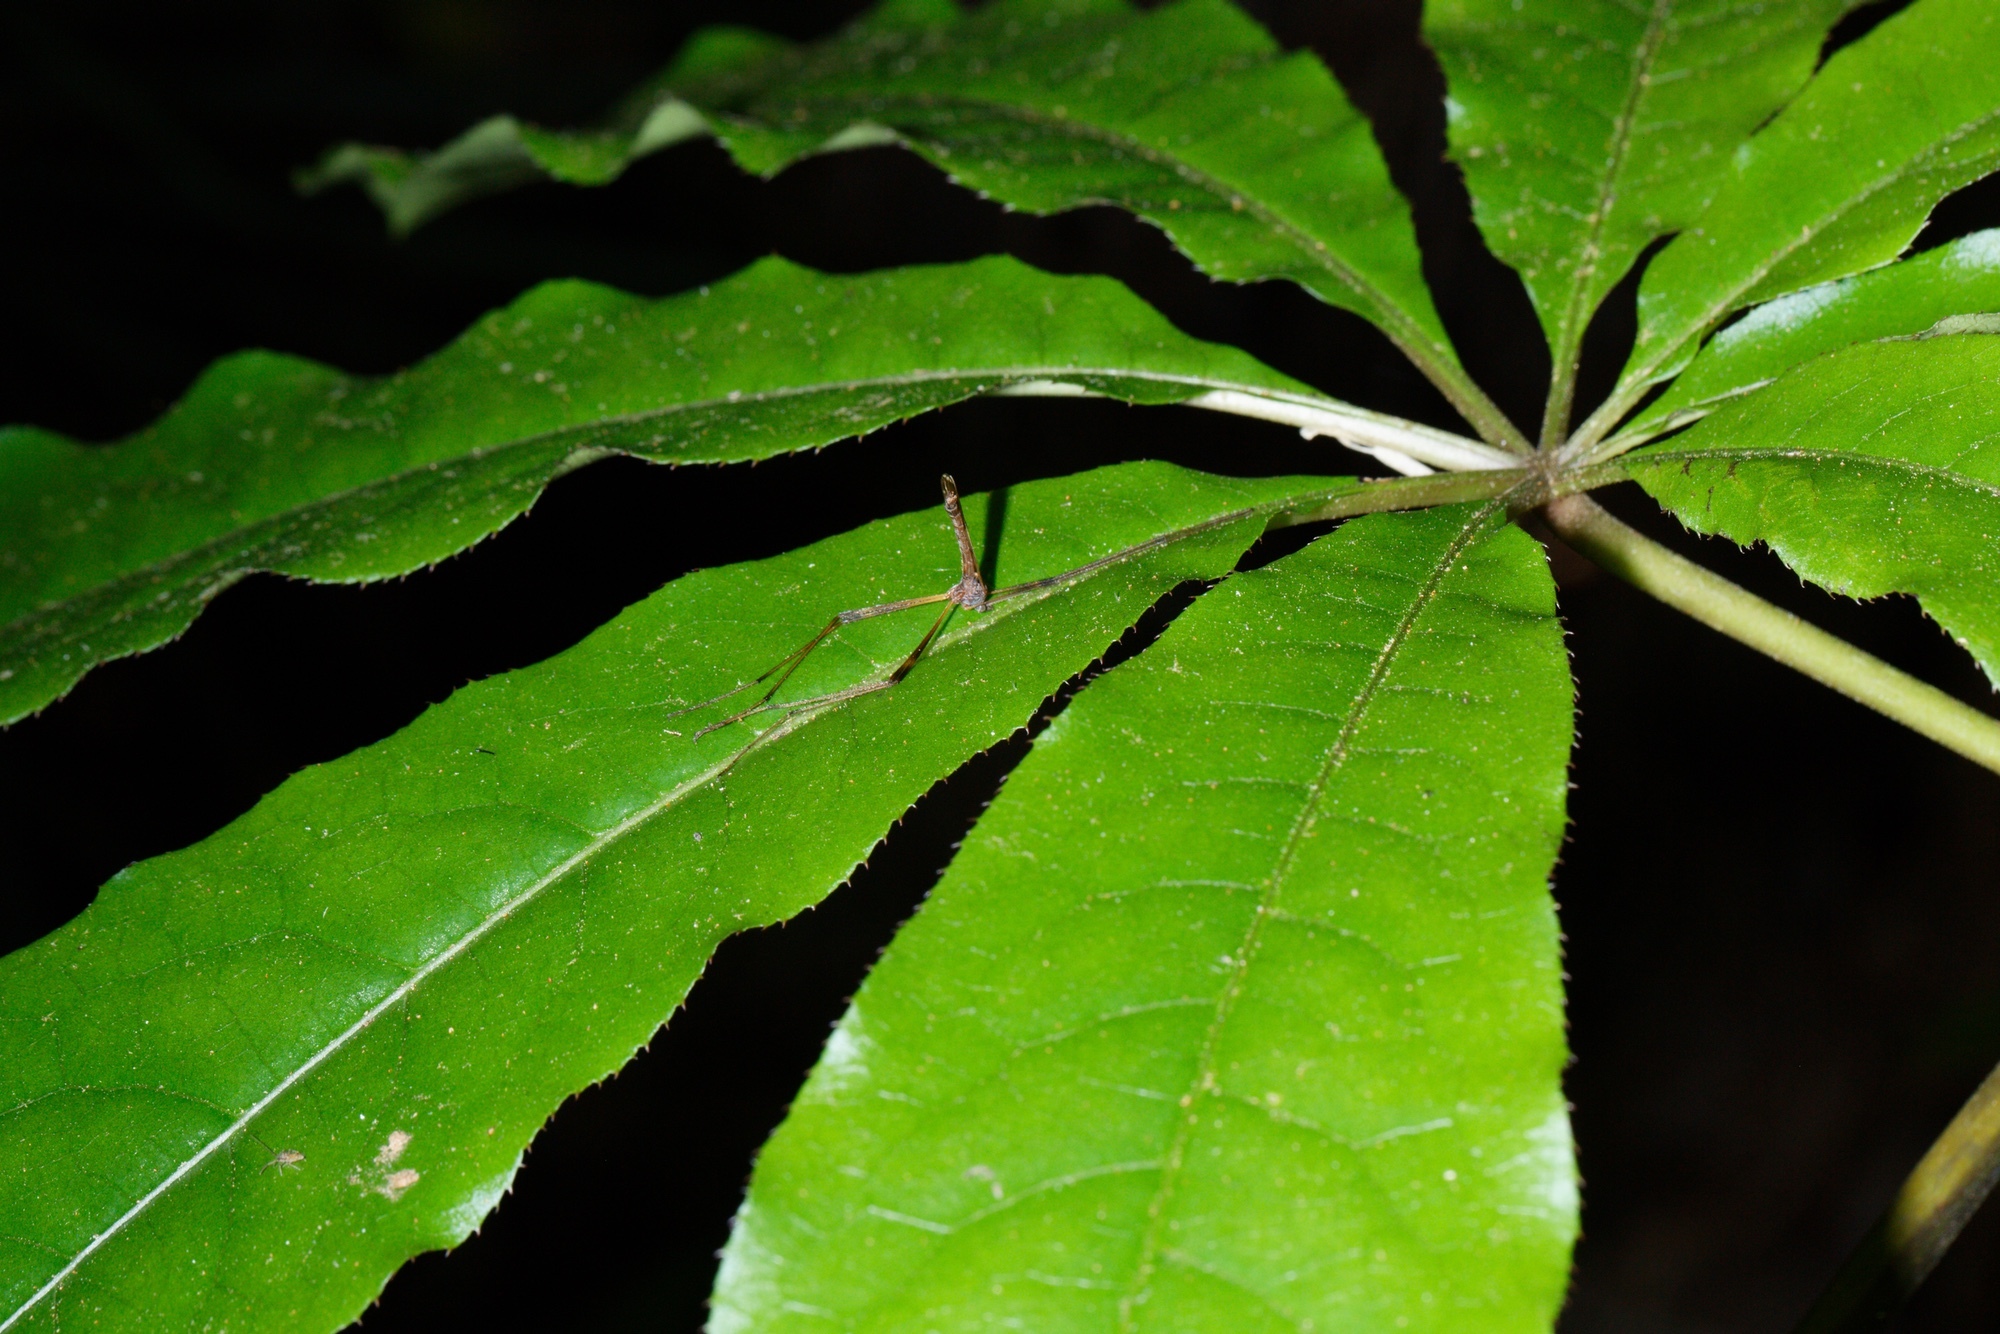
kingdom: Animalia
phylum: Arthropoda
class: Insecta
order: Diptera
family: Limoniidae
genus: Paralimnophila
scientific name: Paralimnophila skusei
